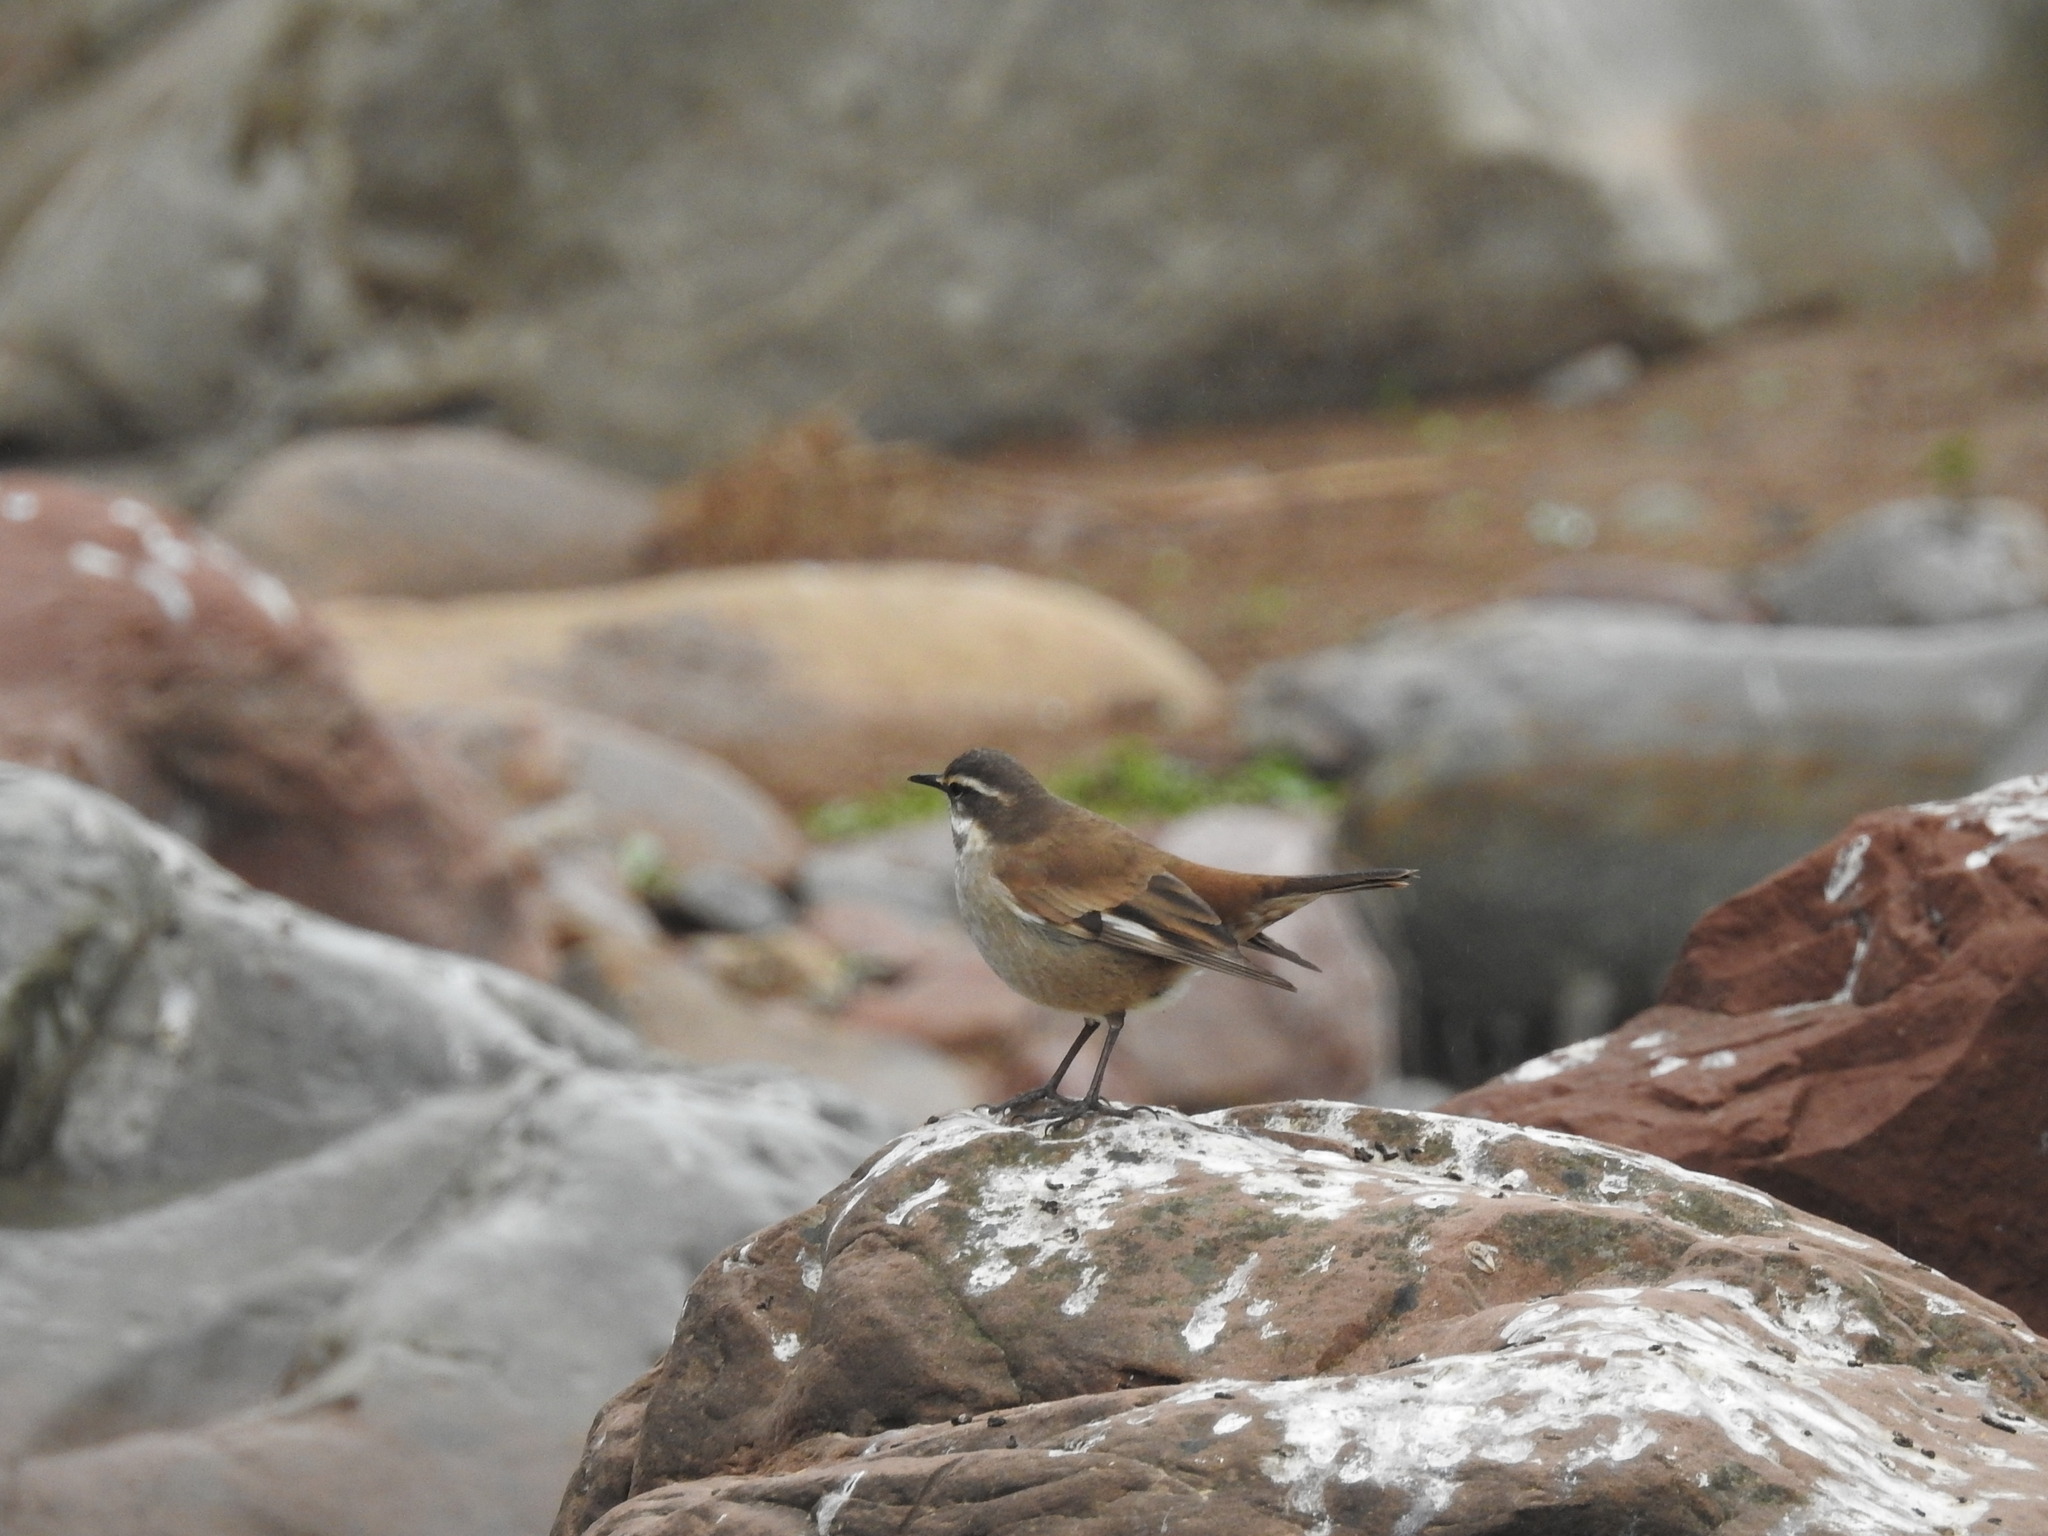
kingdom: Animalia
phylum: Chordata
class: Aves
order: Passeriformes
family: Furnariidae
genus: Cinclodes
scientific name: Cinclodes fuscus
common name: Buff-winged cinclodes
